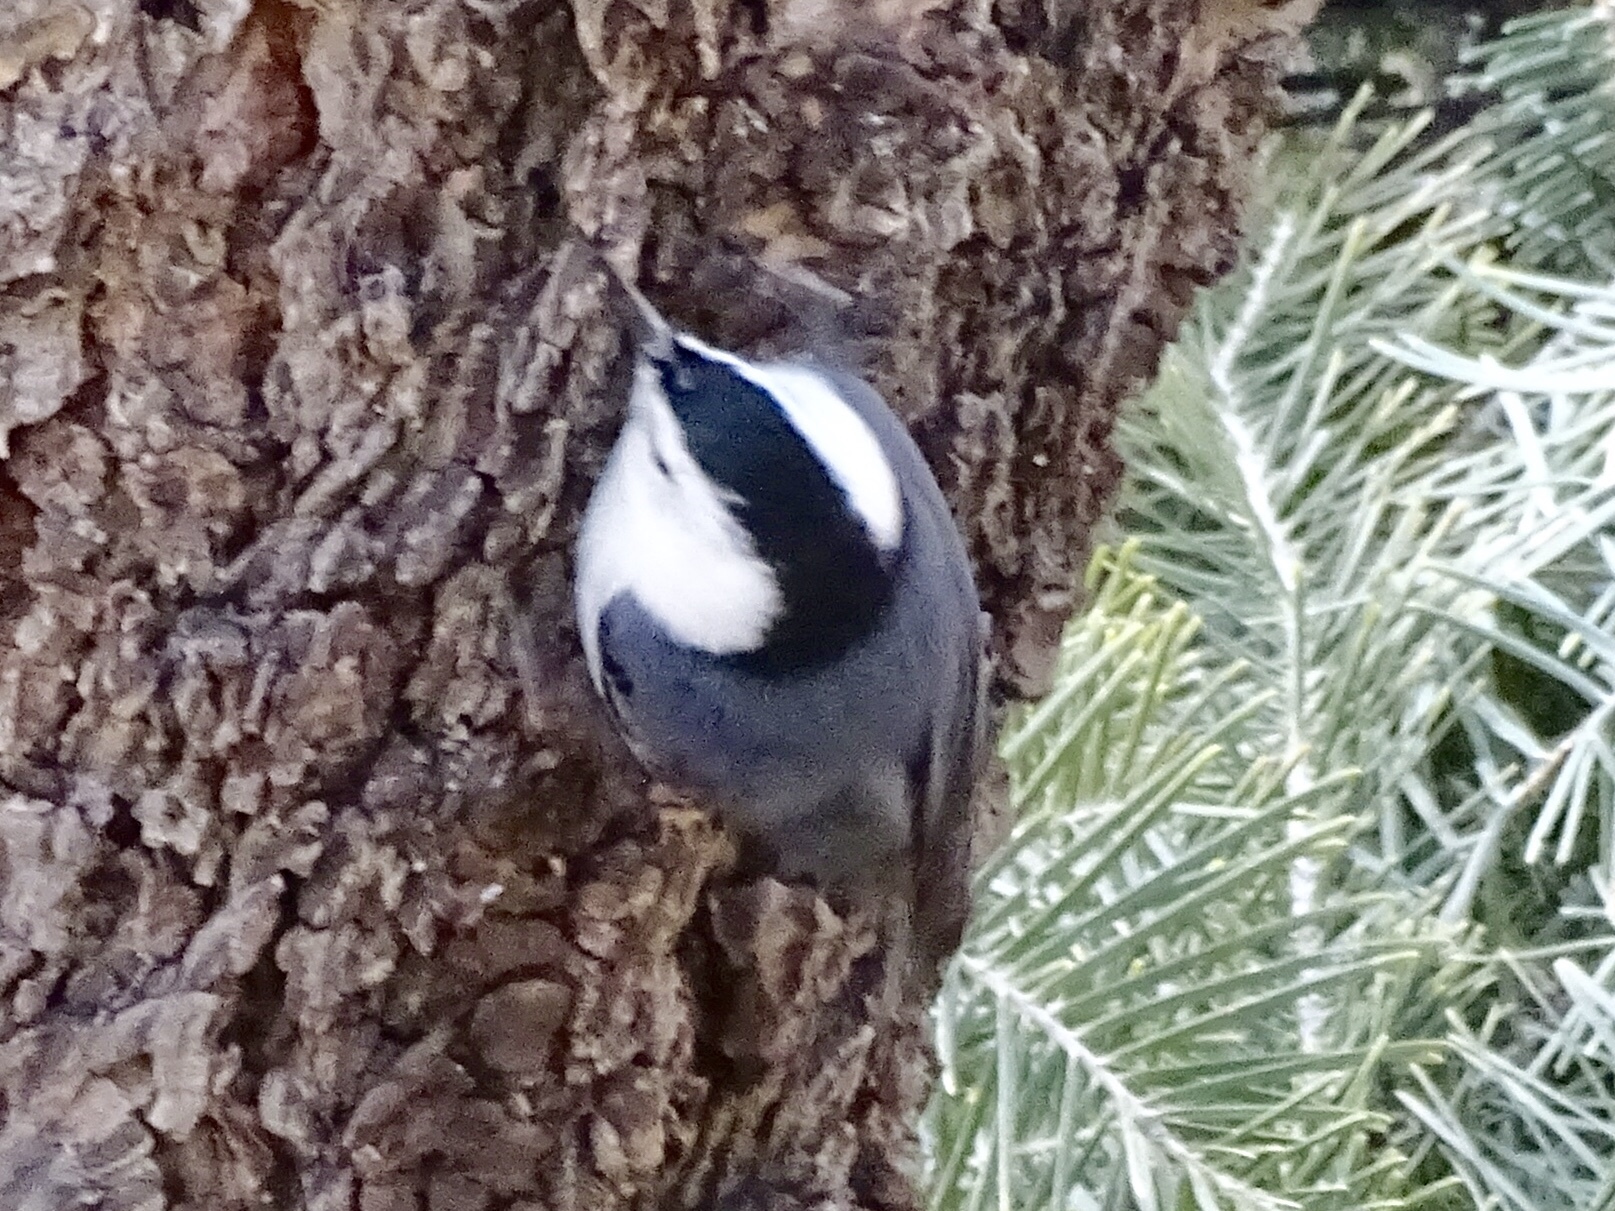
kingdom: Animalia
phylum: Chordata
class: Aves
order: Passeriformes
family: Sittidae
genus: Sitta
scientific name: Sitta carolinensis
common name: White-breasted nuthatch
